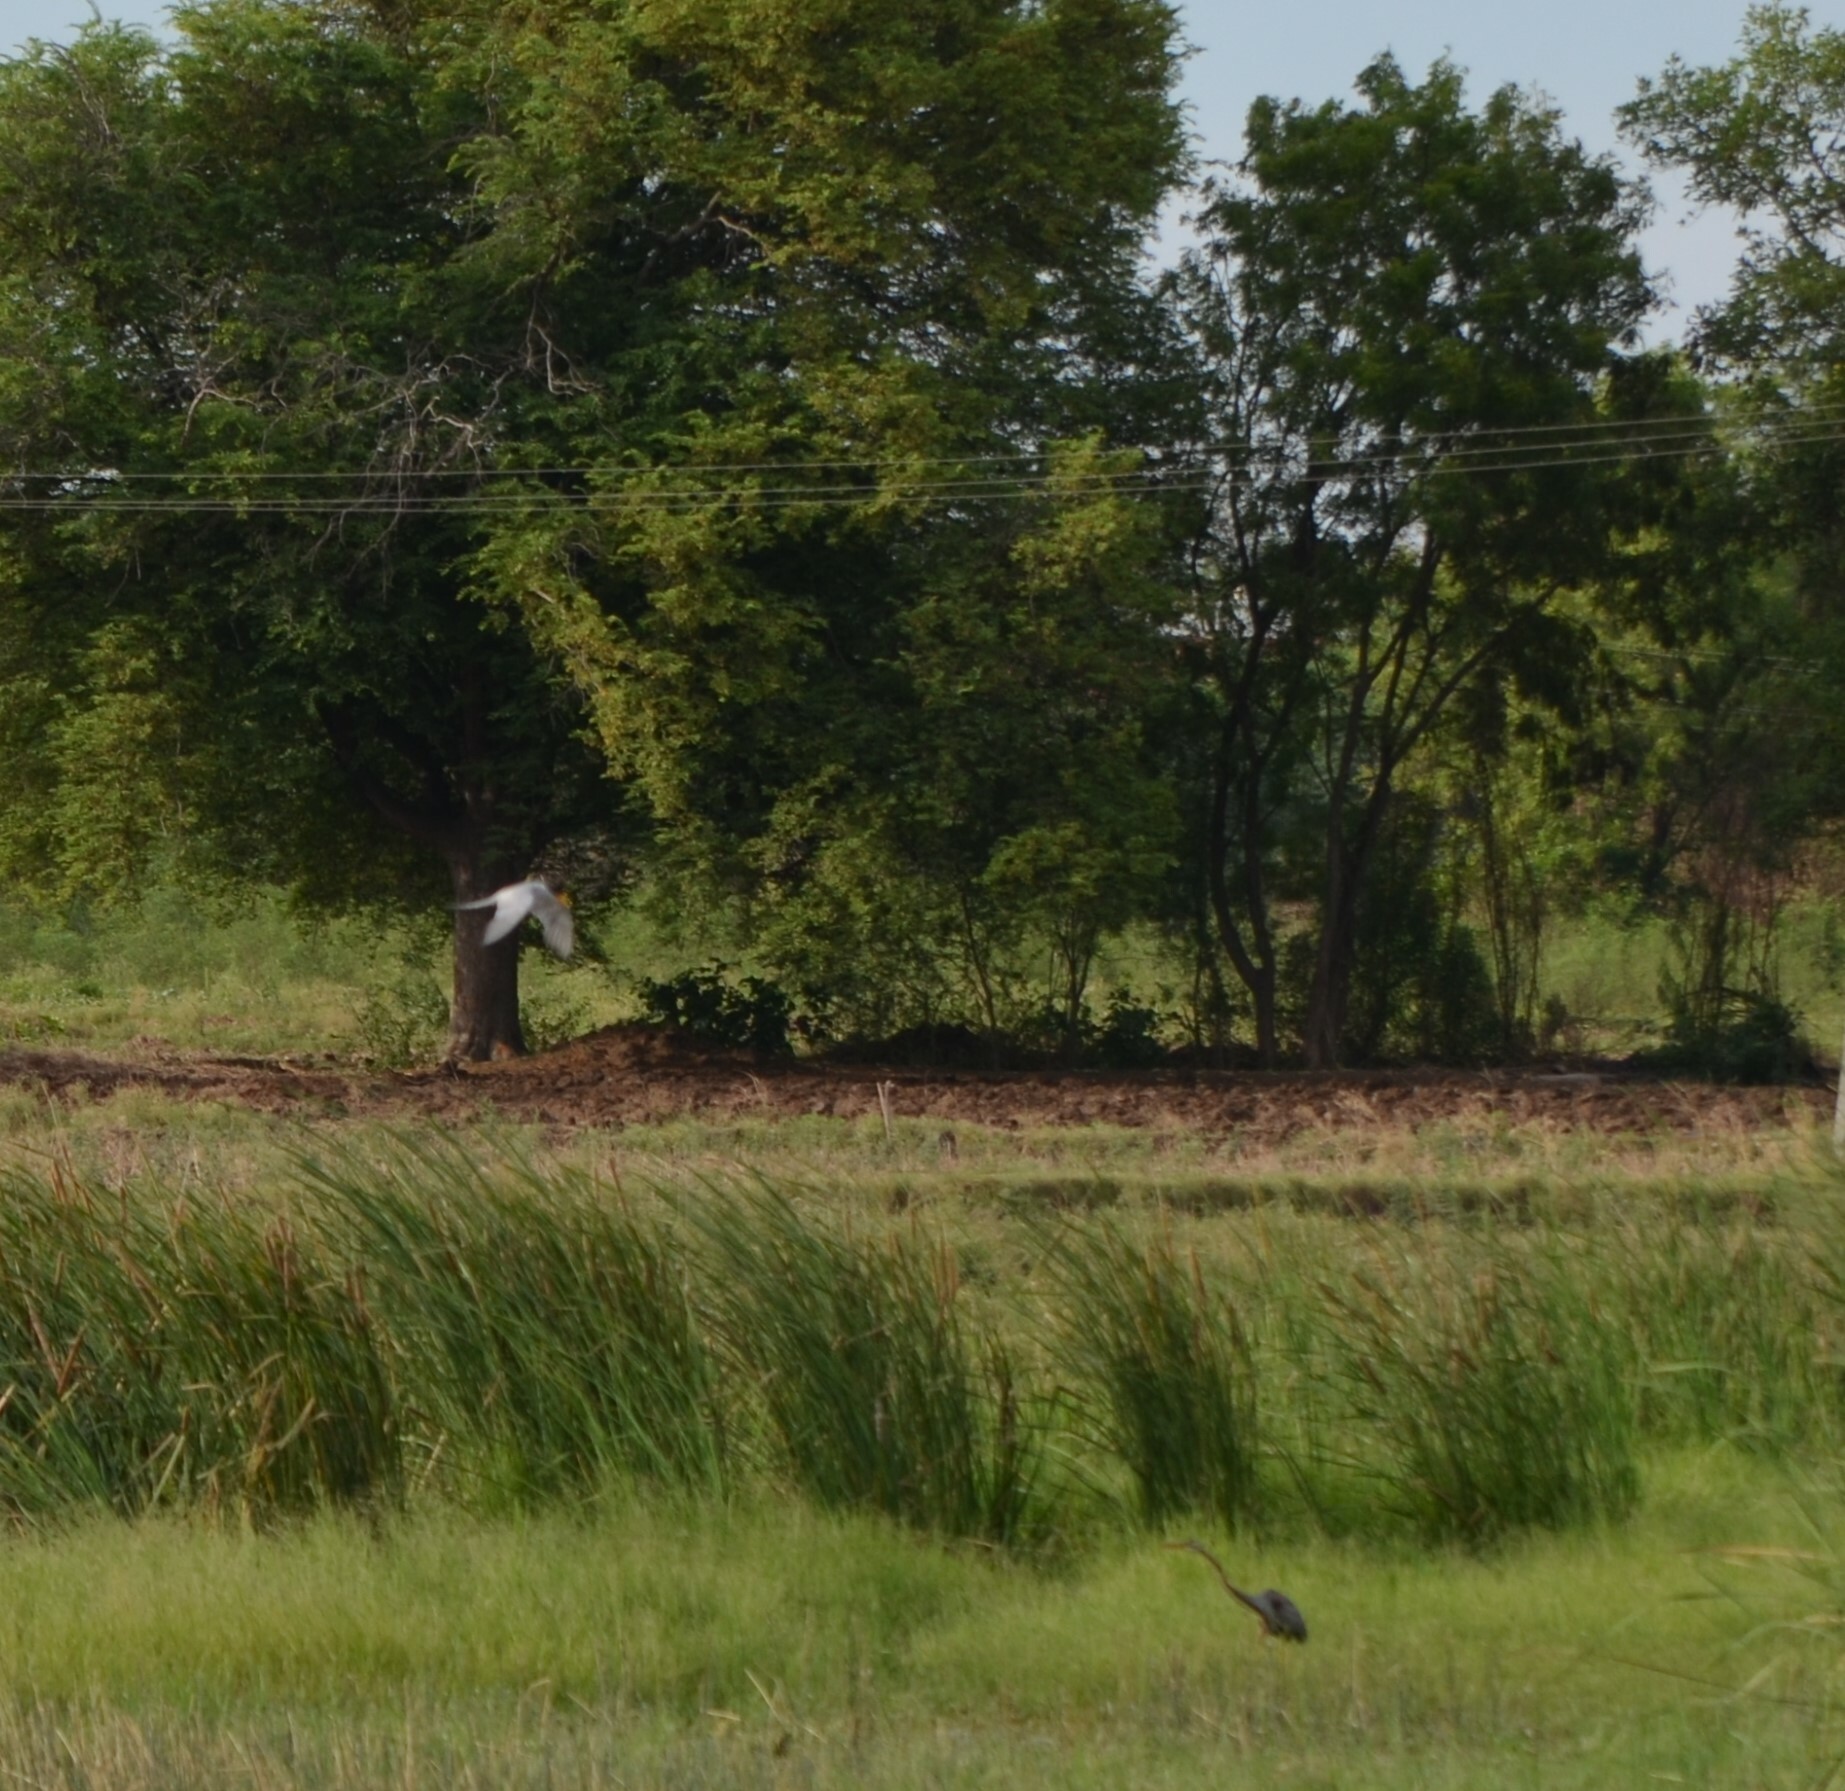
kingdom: Animalia
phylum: Chordata
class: Aves
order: Charadriiformes
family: Laridae
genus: Sterna
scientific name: Sterna aurantia
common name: River tern
